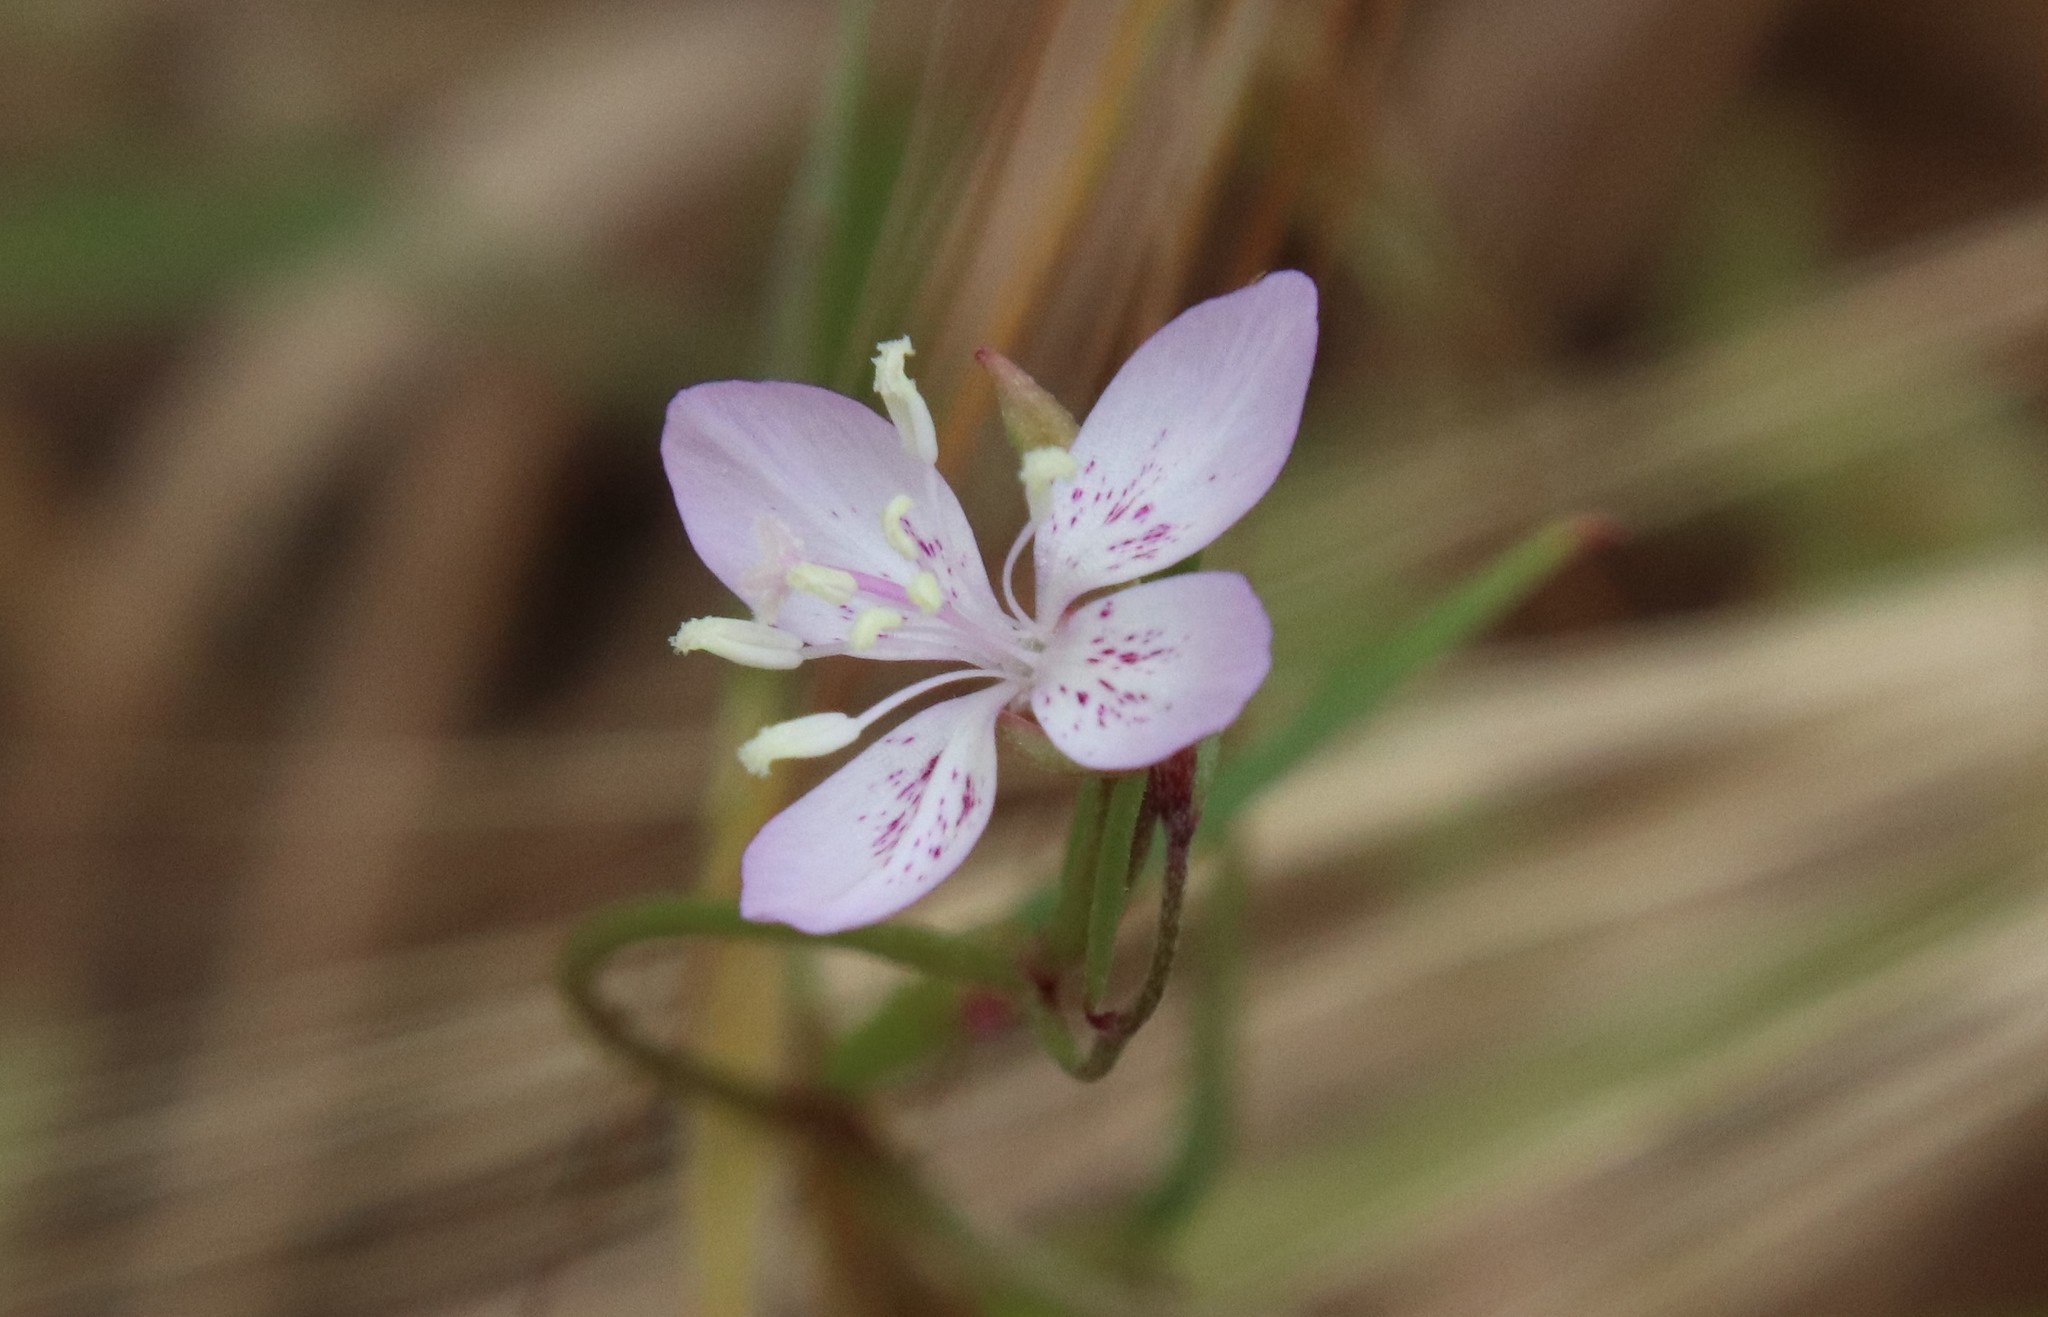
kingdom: Plantae
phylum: Tracheophyta
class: Magnoliopsida
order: Myrtales
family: Onagraceae
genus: Clarkia
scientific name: Clarkia similis
